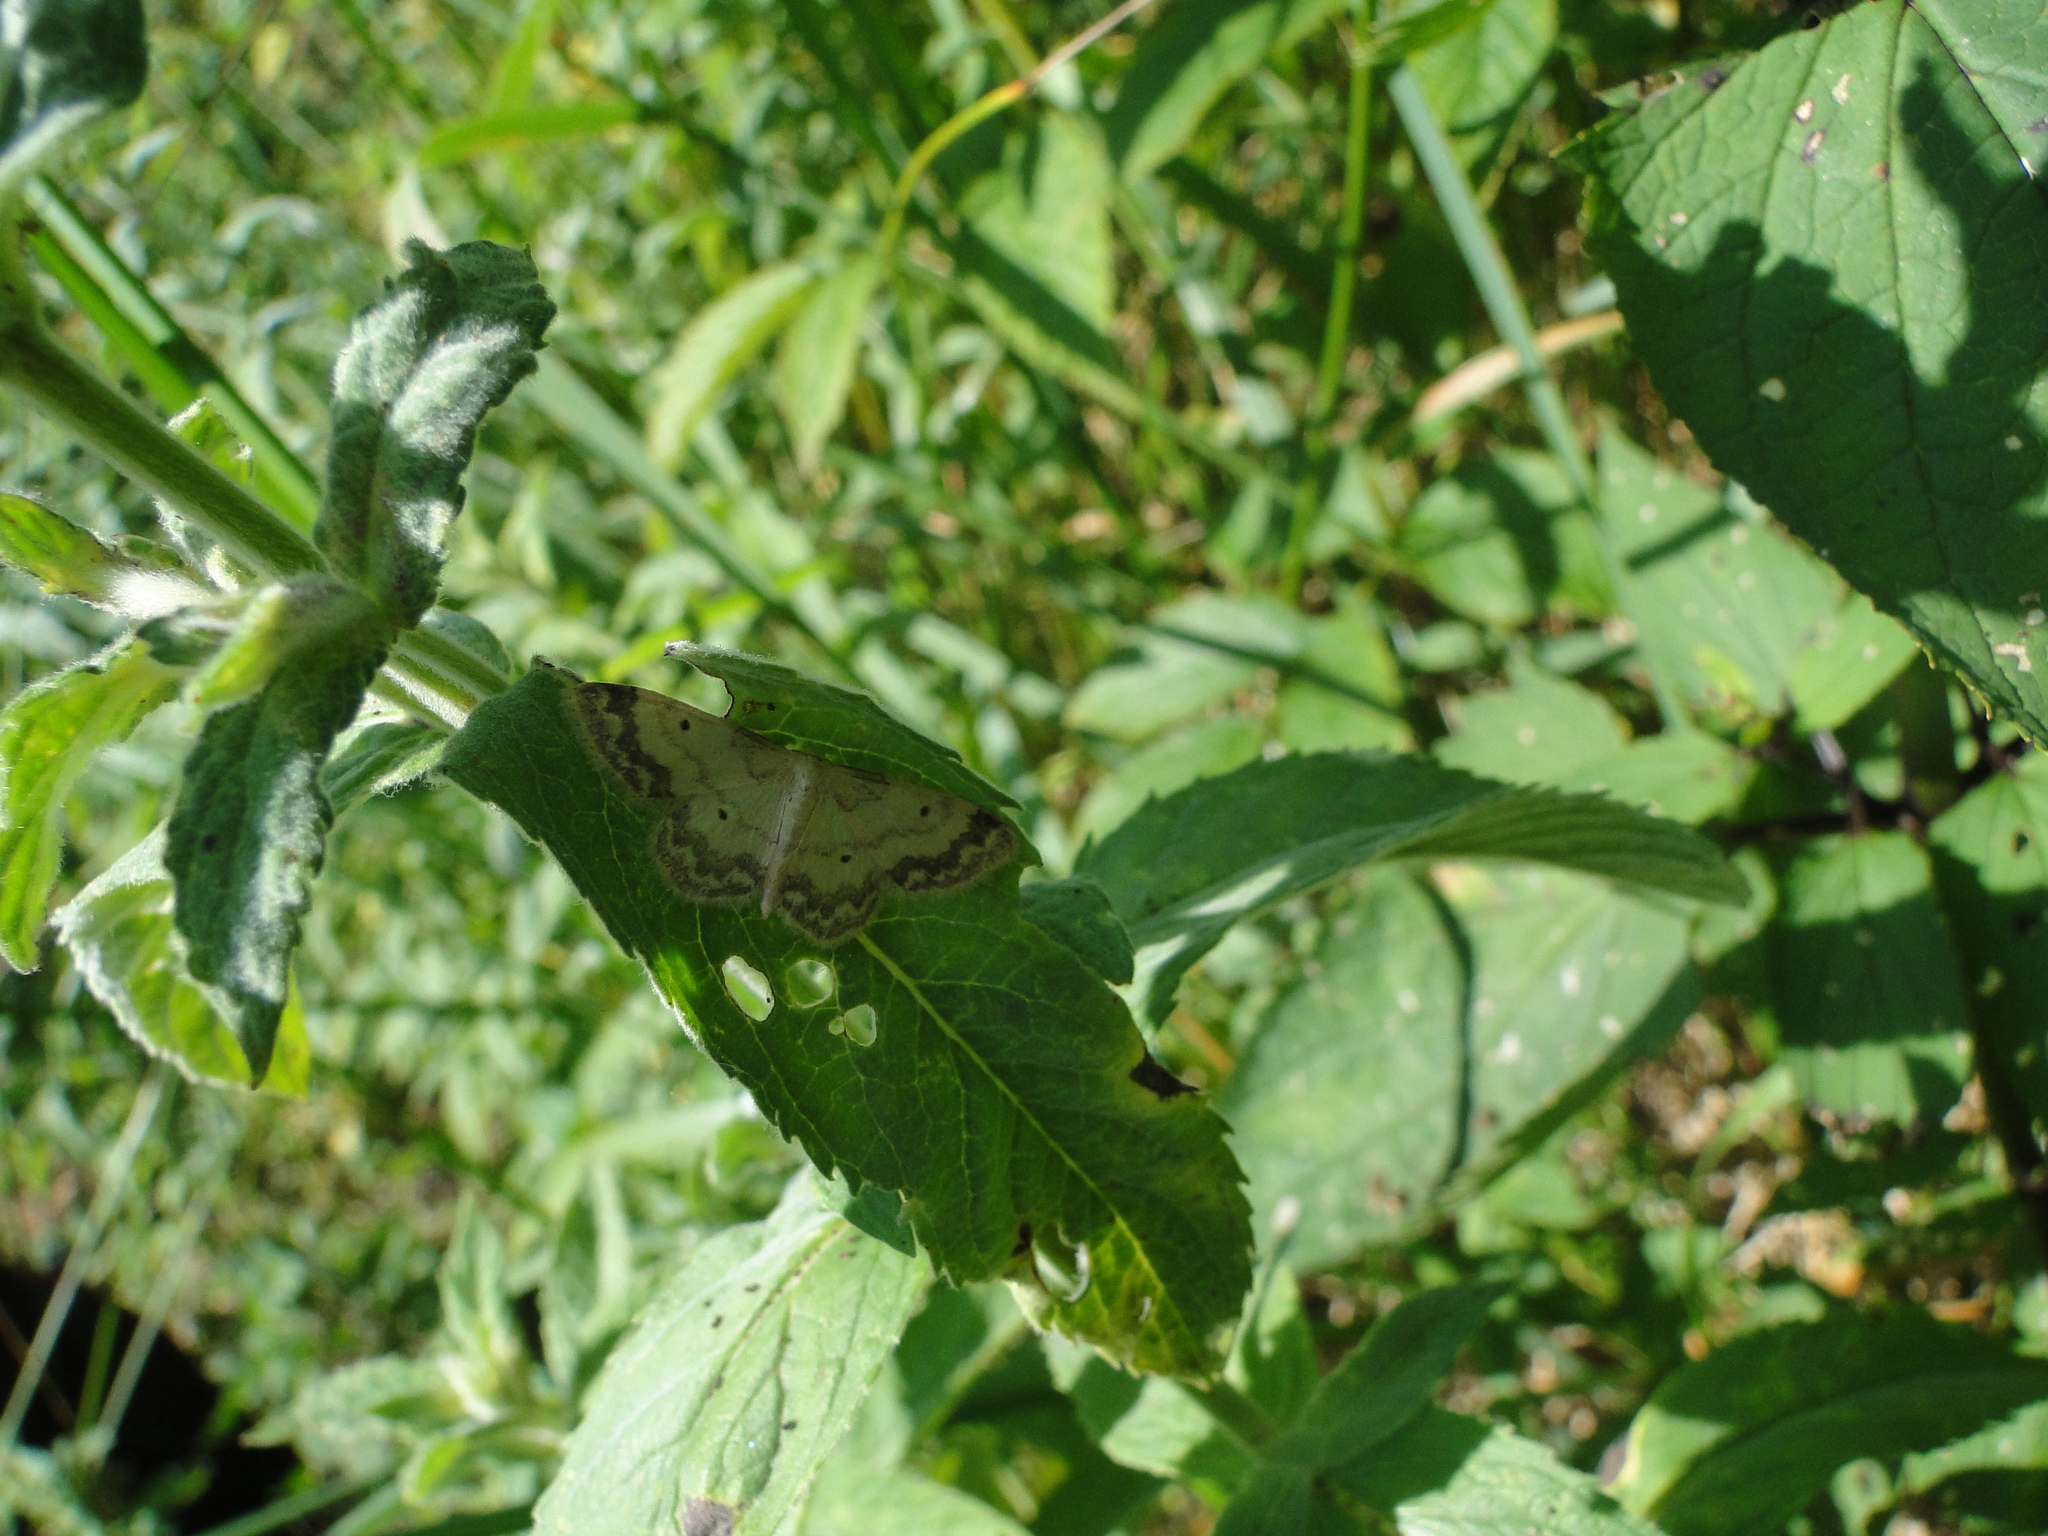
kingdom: Animalia
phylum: Arthropoda
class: Insecta
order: Lepidoptera
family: Geometridae
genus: Idaea
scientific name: Idaea trigeminata
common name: Treble brown spot
